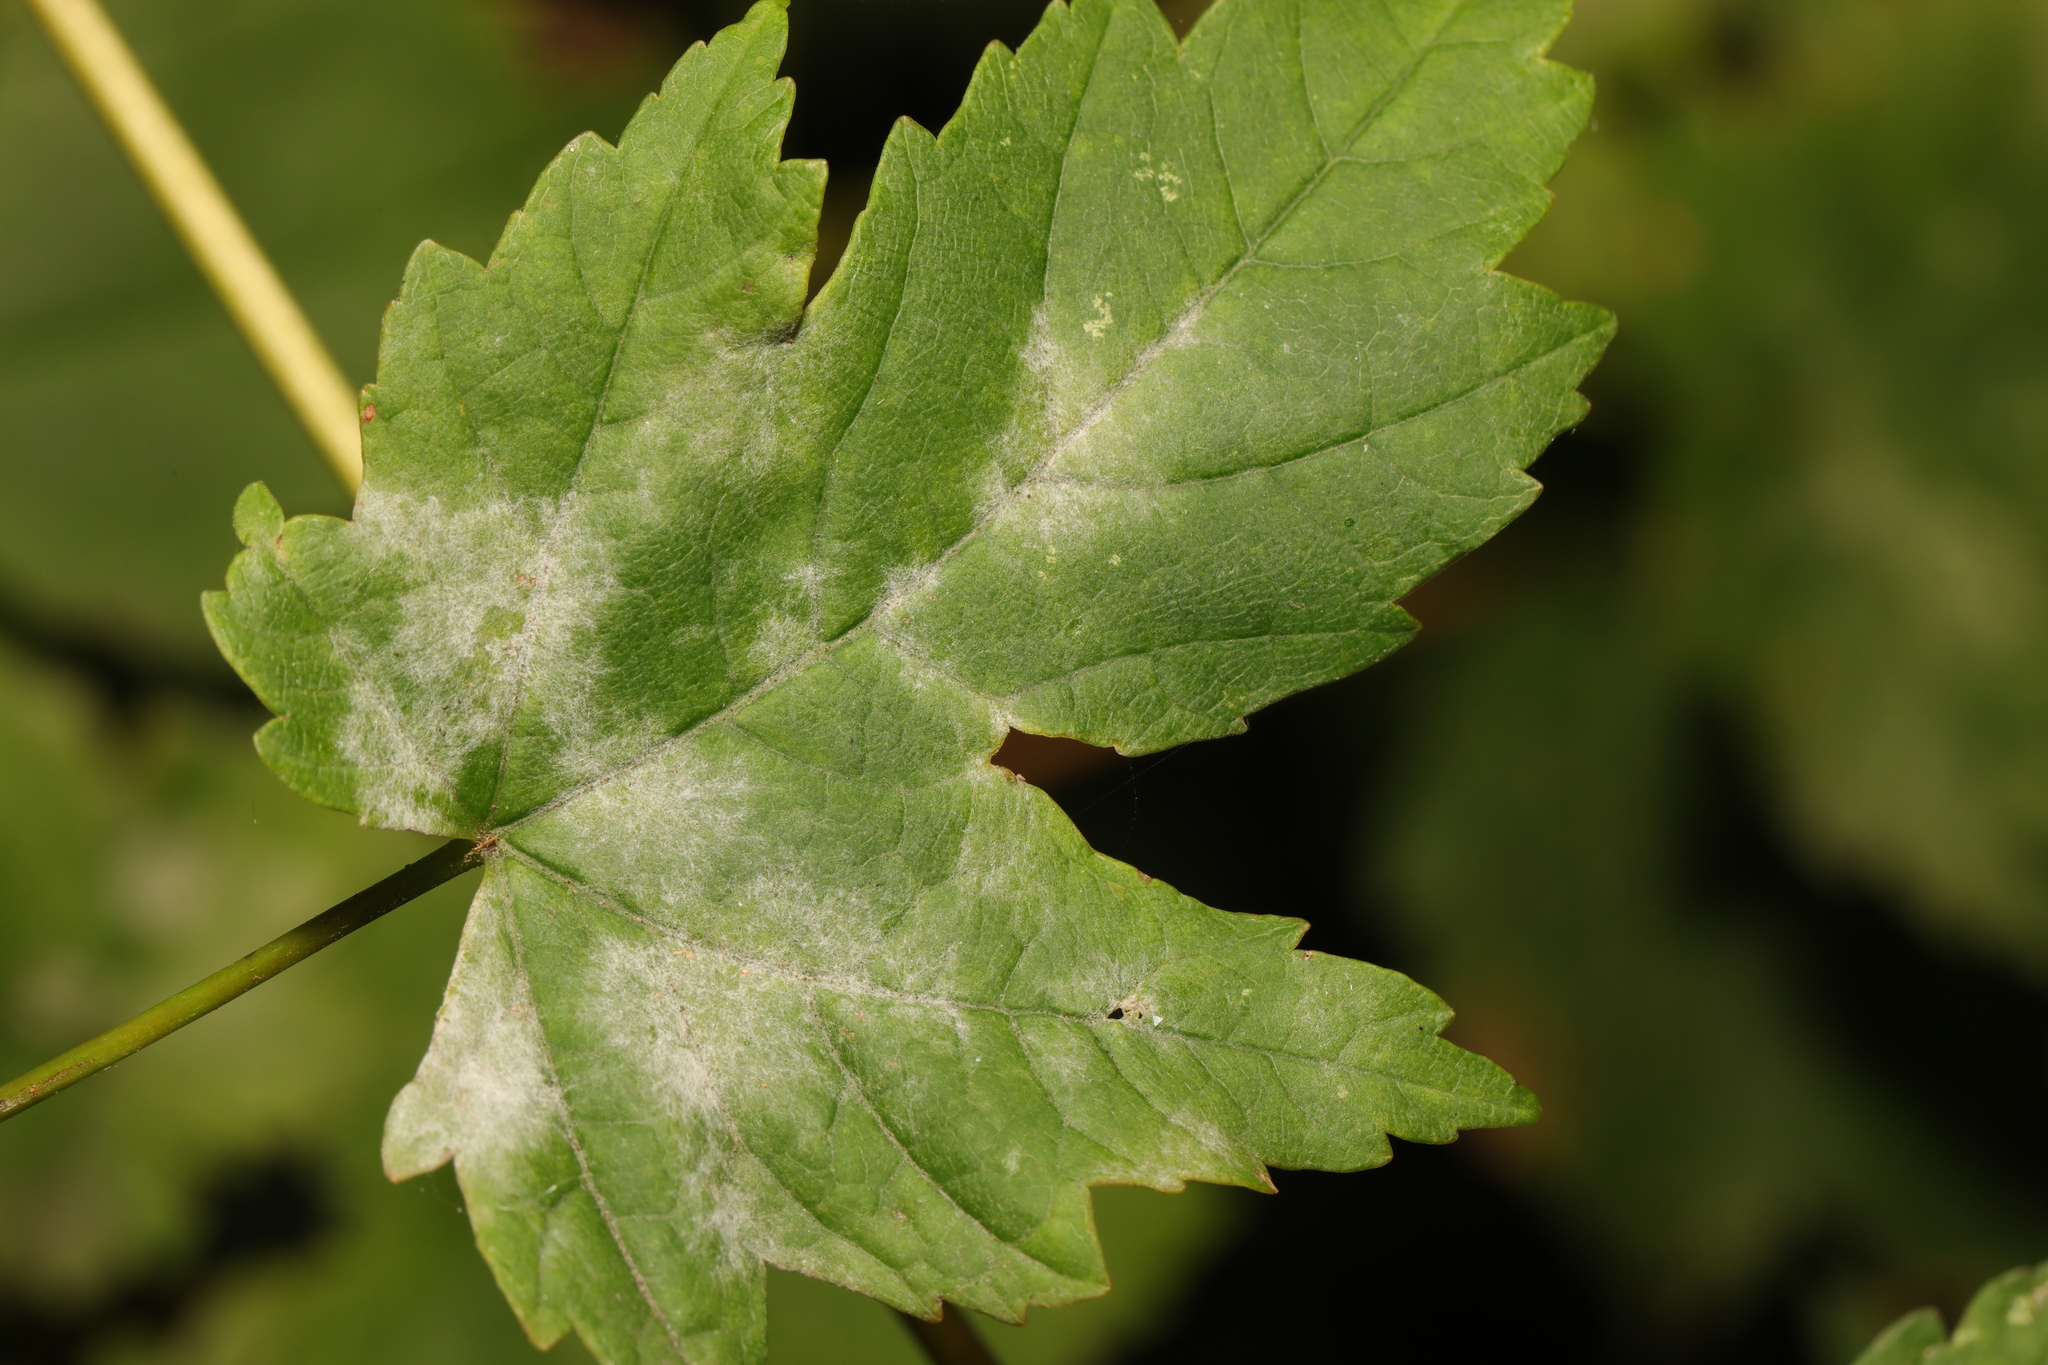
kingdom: Fungi
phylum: Ascomycota
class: Leotiomycetes
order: Helotiales
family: Erysiphaceae
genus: Sawadaea
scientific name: Sawadaea bicornis
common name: Maple mildew
